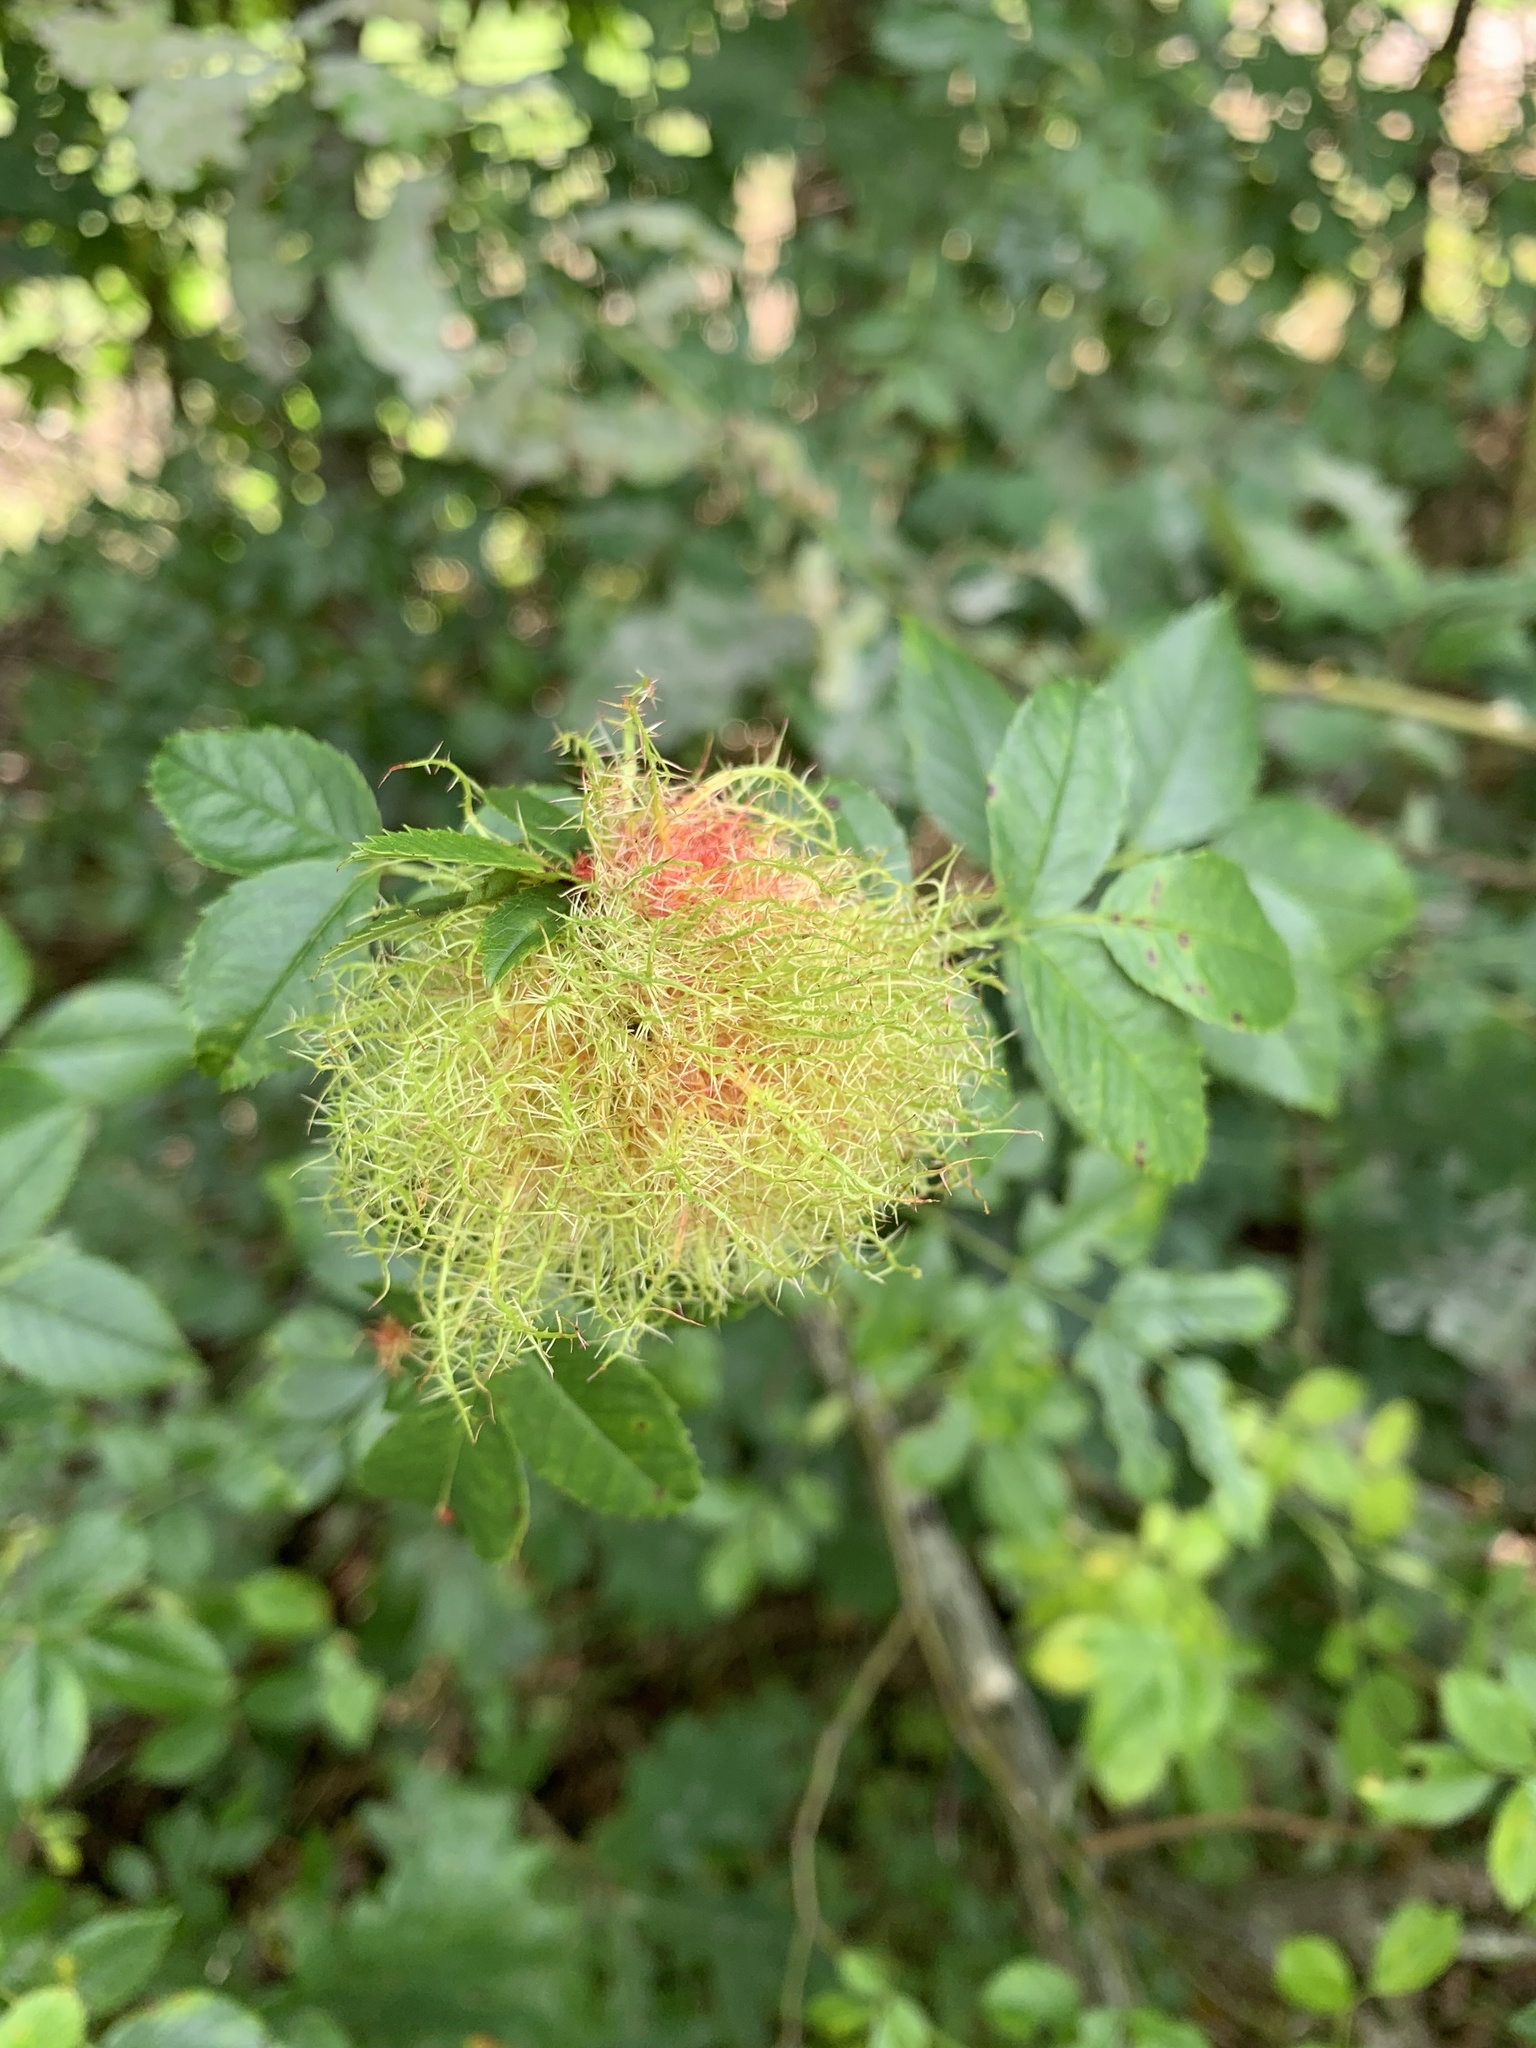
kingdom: Animalia
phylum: Arthropoda
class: Insecta
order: Hymenoptera
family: Cynipidae
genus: Diplolepis
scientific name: Diplolepis rosae
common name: Bedeguar gall
